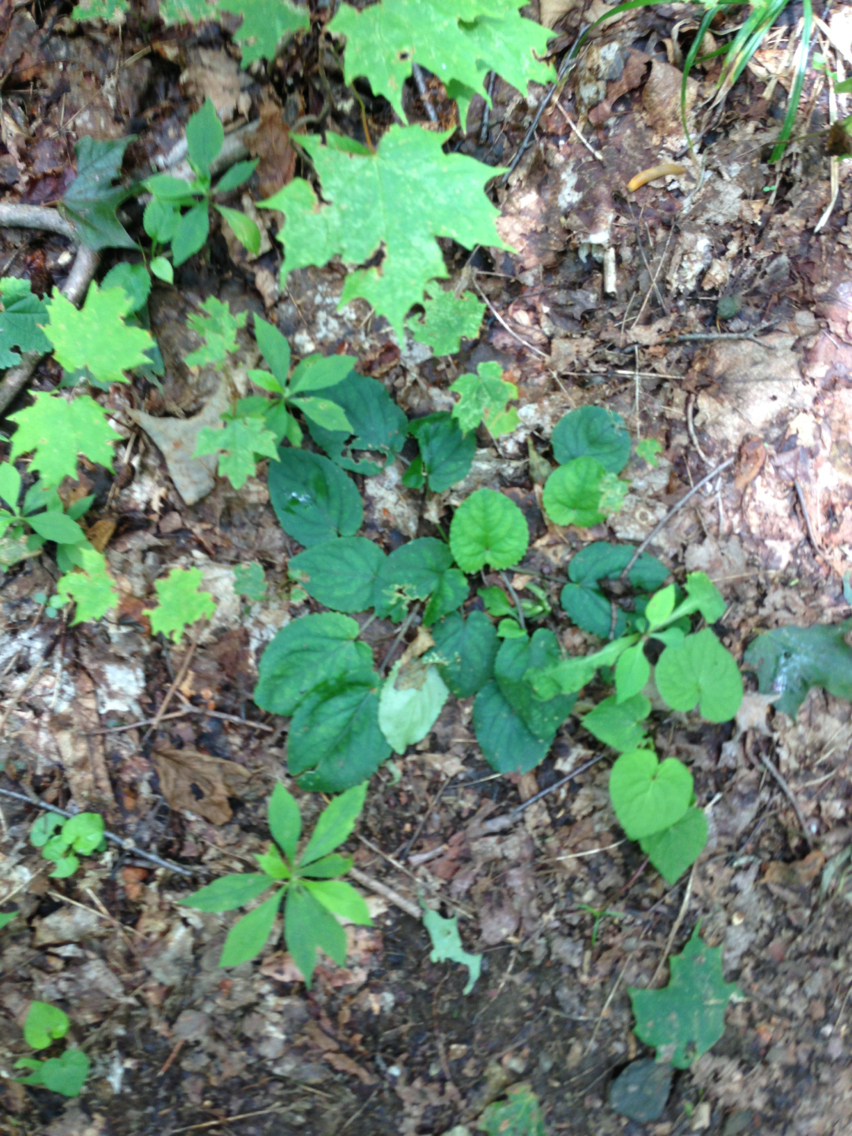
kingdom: Plantae
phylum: Tracheophyta
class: Magnoliopsida
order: Malpighiales
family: Violaceae
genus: Viola
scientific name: Viola rotundifolia
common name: Early yellow violet
